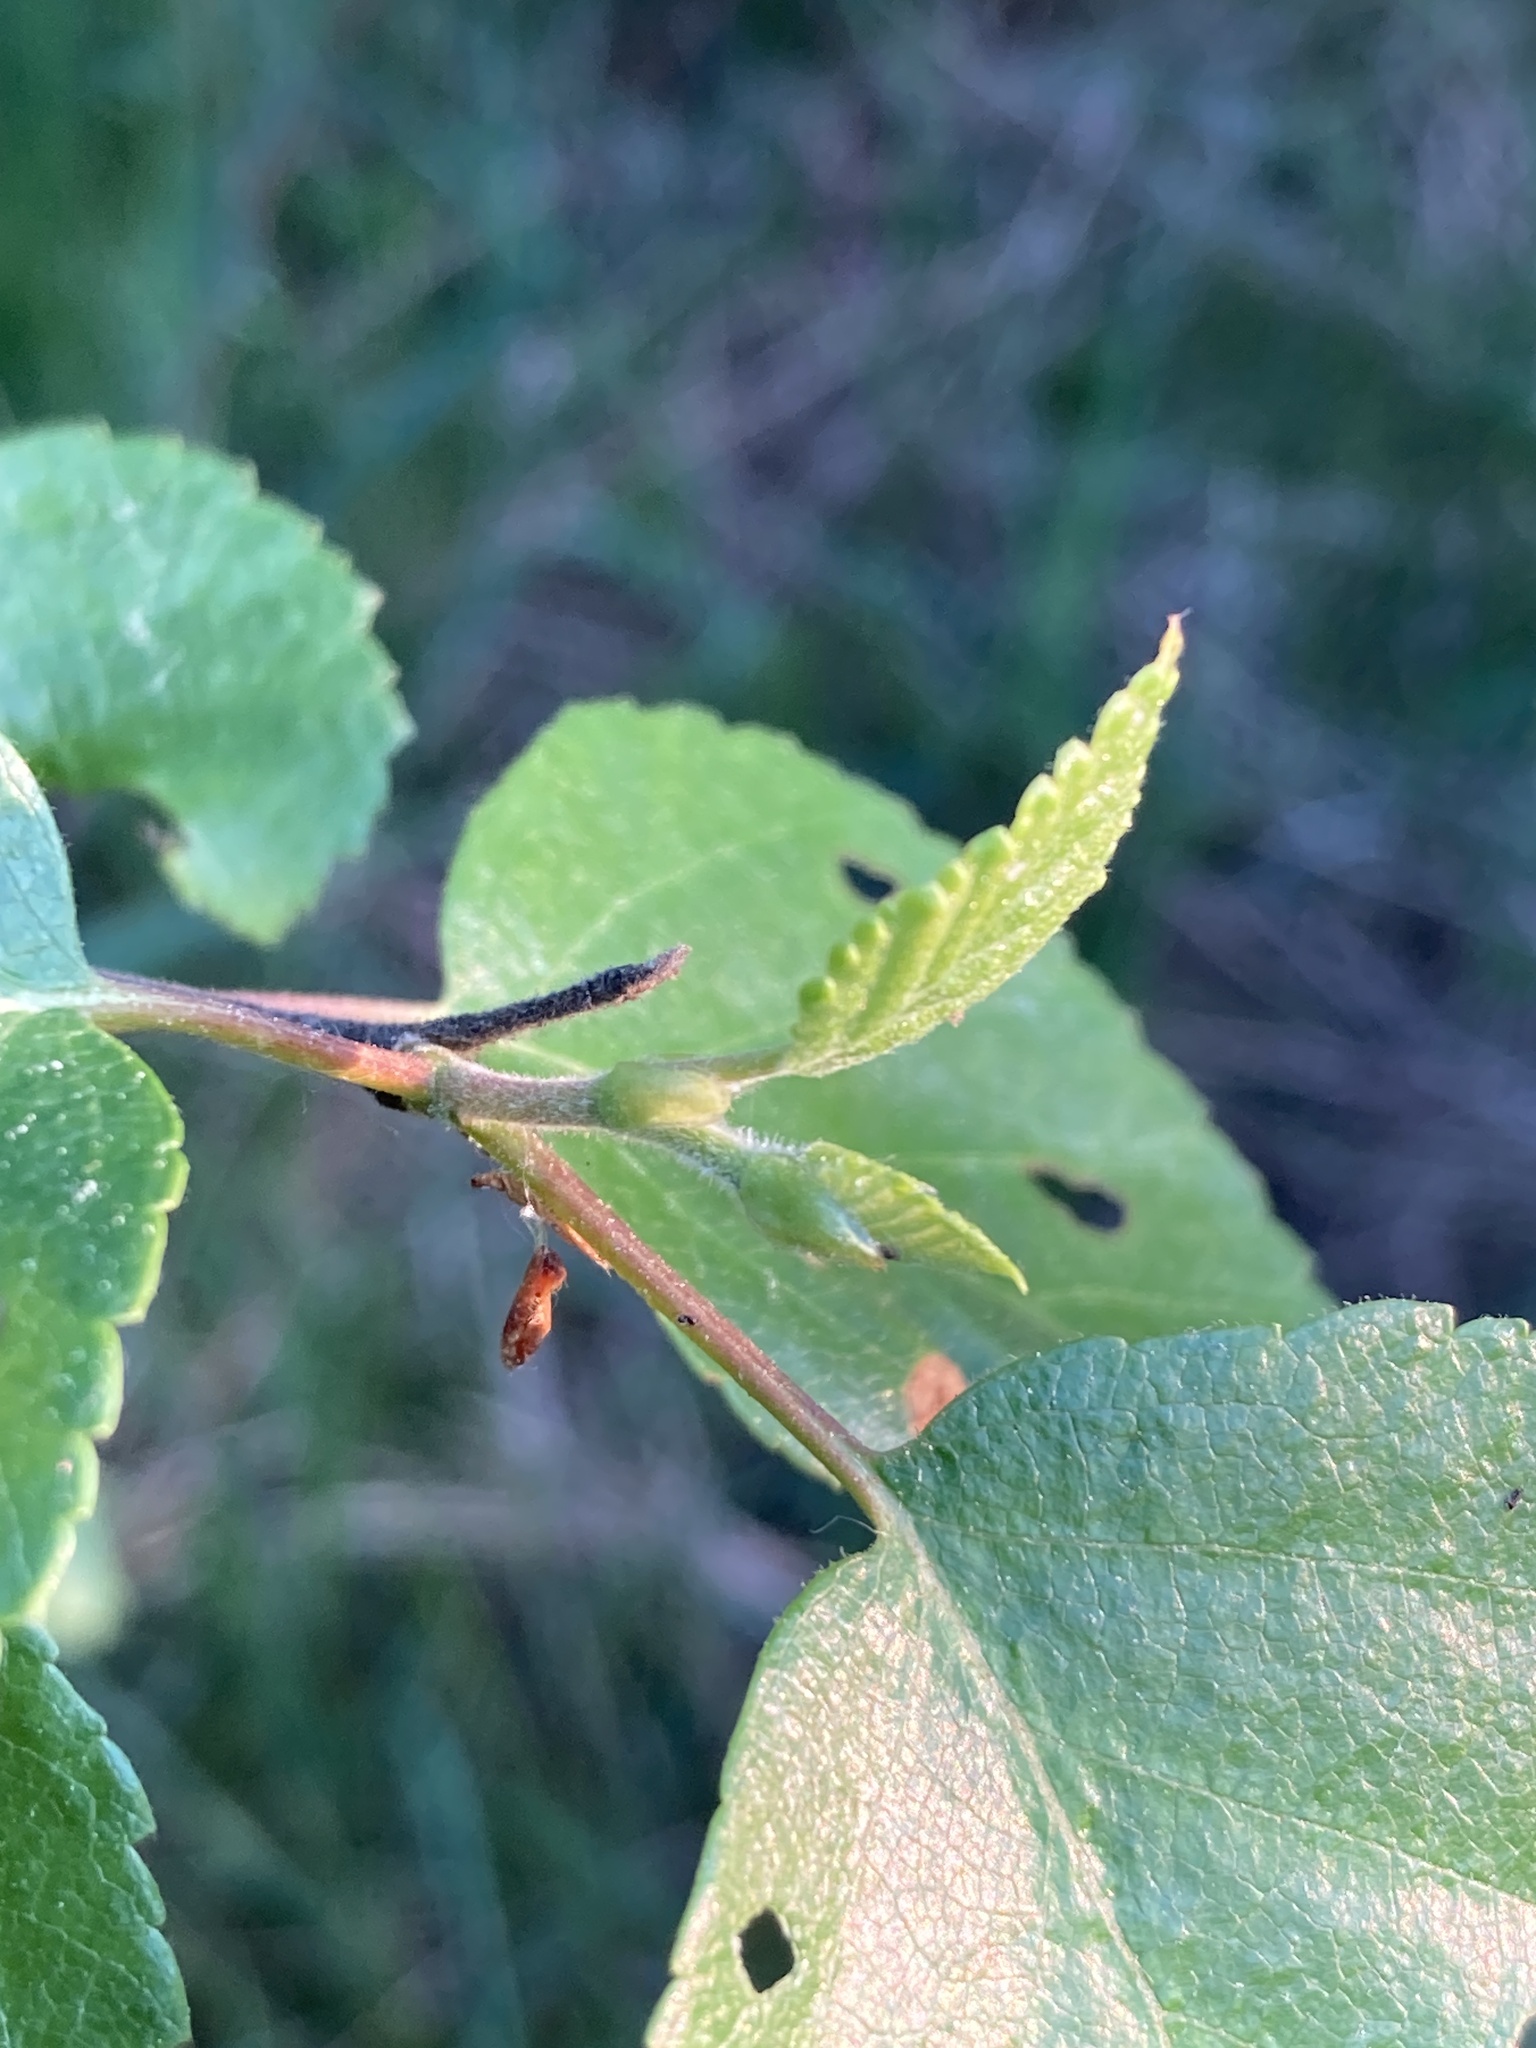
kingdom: Plantae
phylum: Tracheophyta
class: Magnoliopsida
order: Fagales
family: Betulaceae
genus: Betula
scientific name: Betula pubescens
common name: Downy birch
